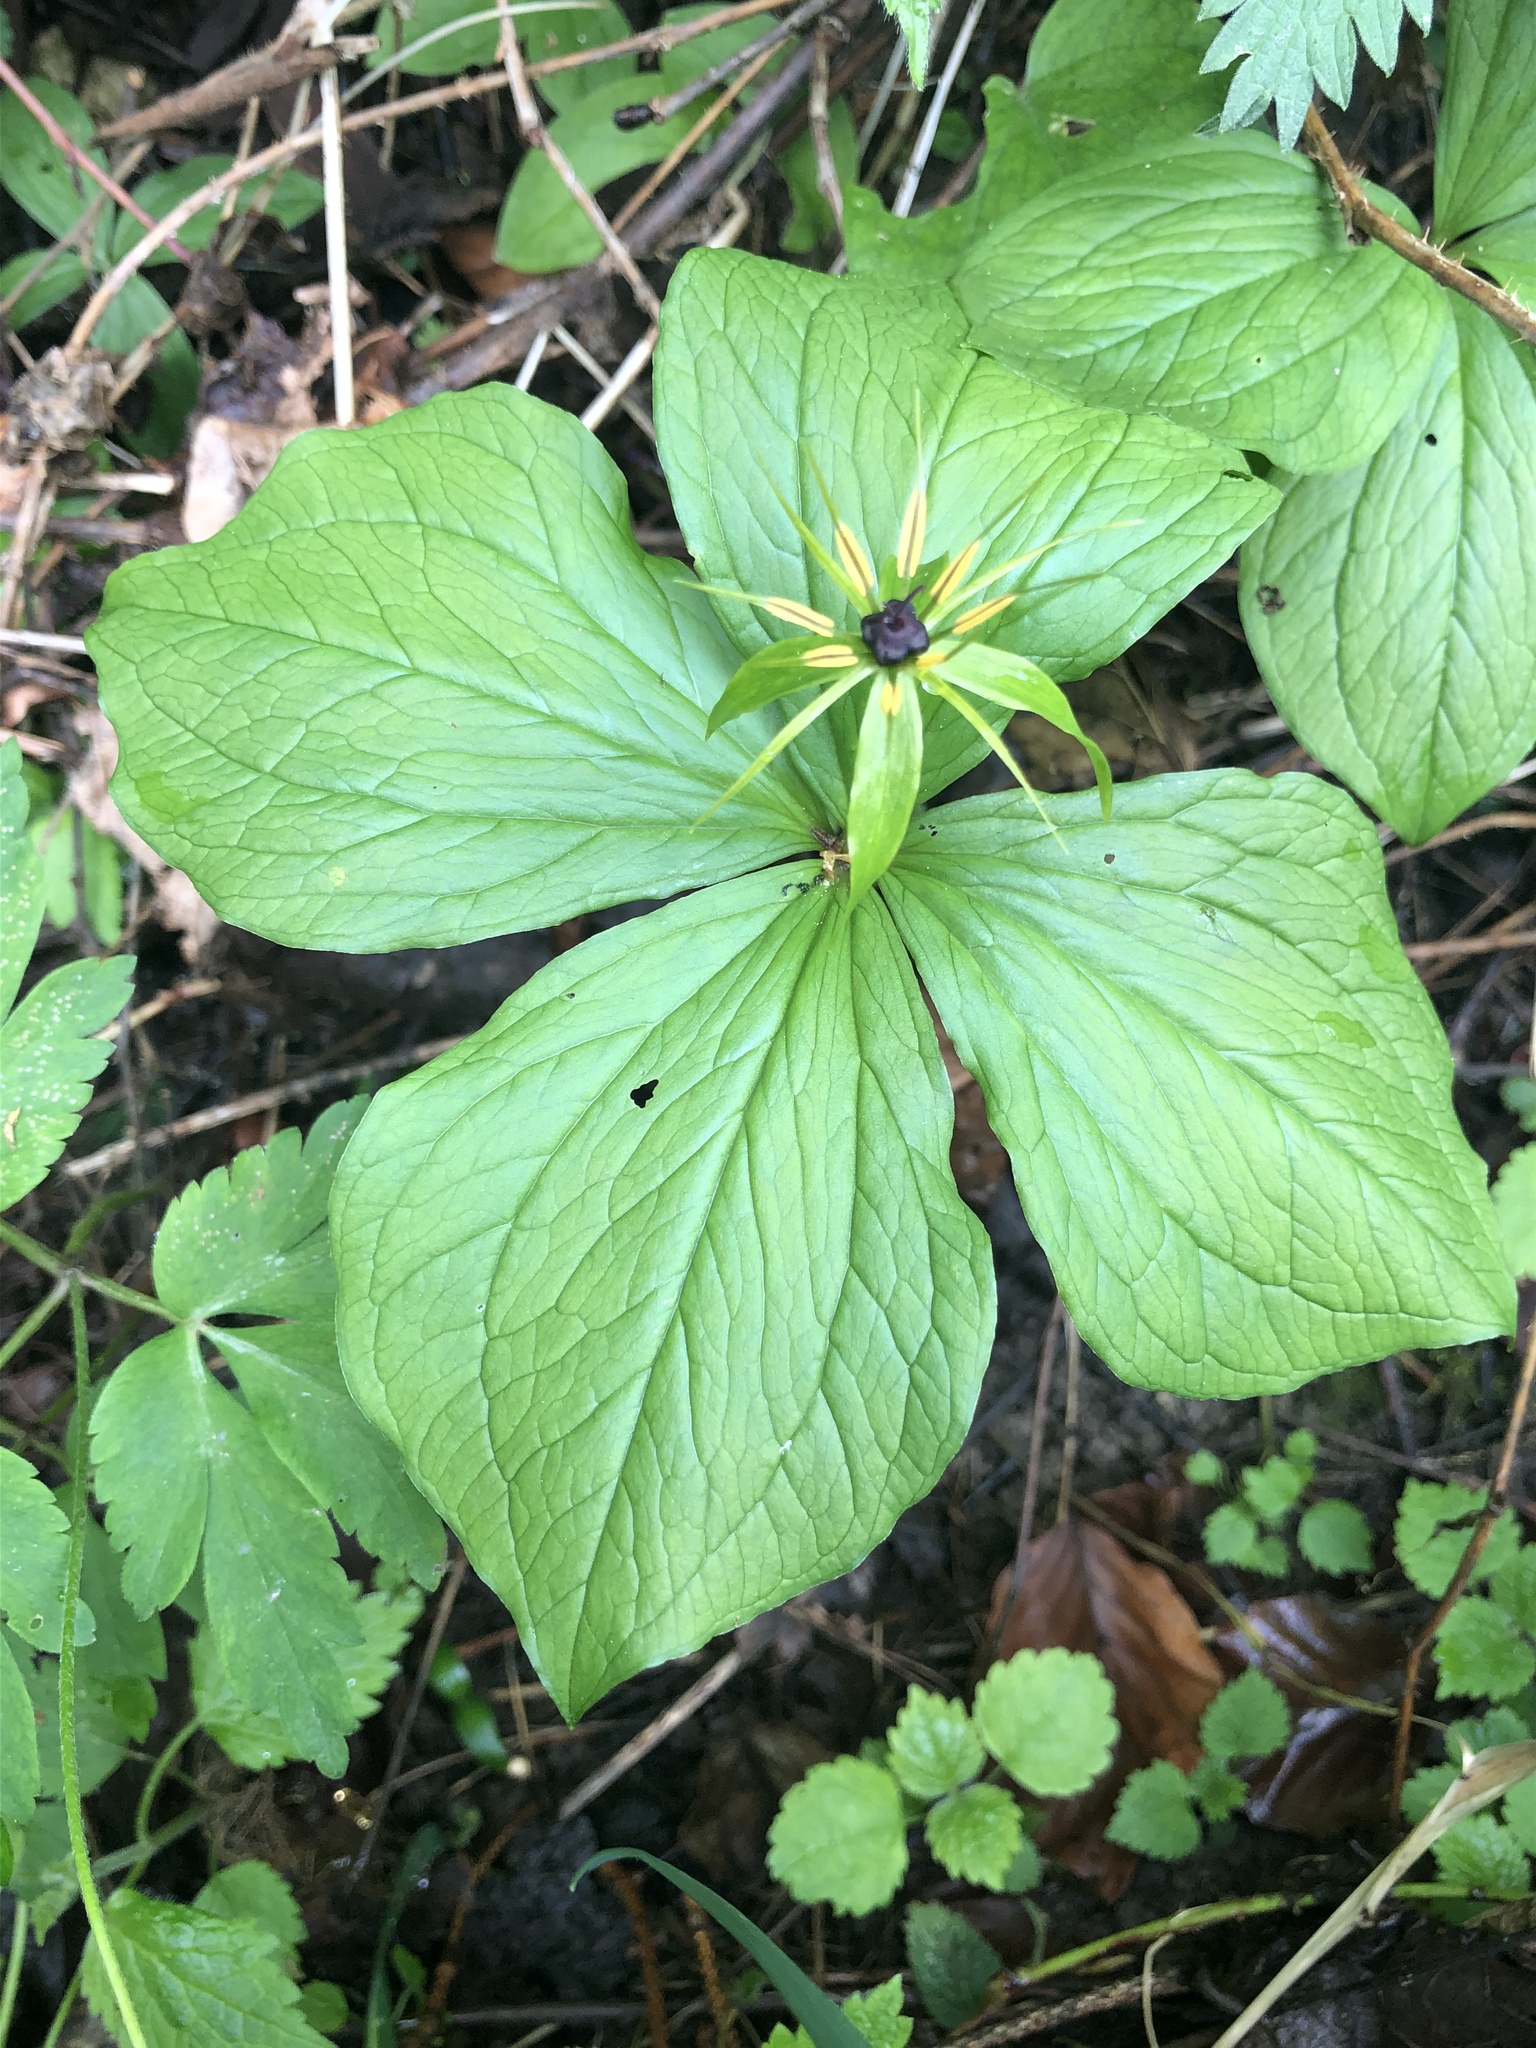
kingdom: Plantae
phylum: Tracheophyta
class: Liliopsida
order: Liliales
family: Melanthiaceae
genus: Paris
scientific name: Paris quadrifolia
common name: Herb-paris
